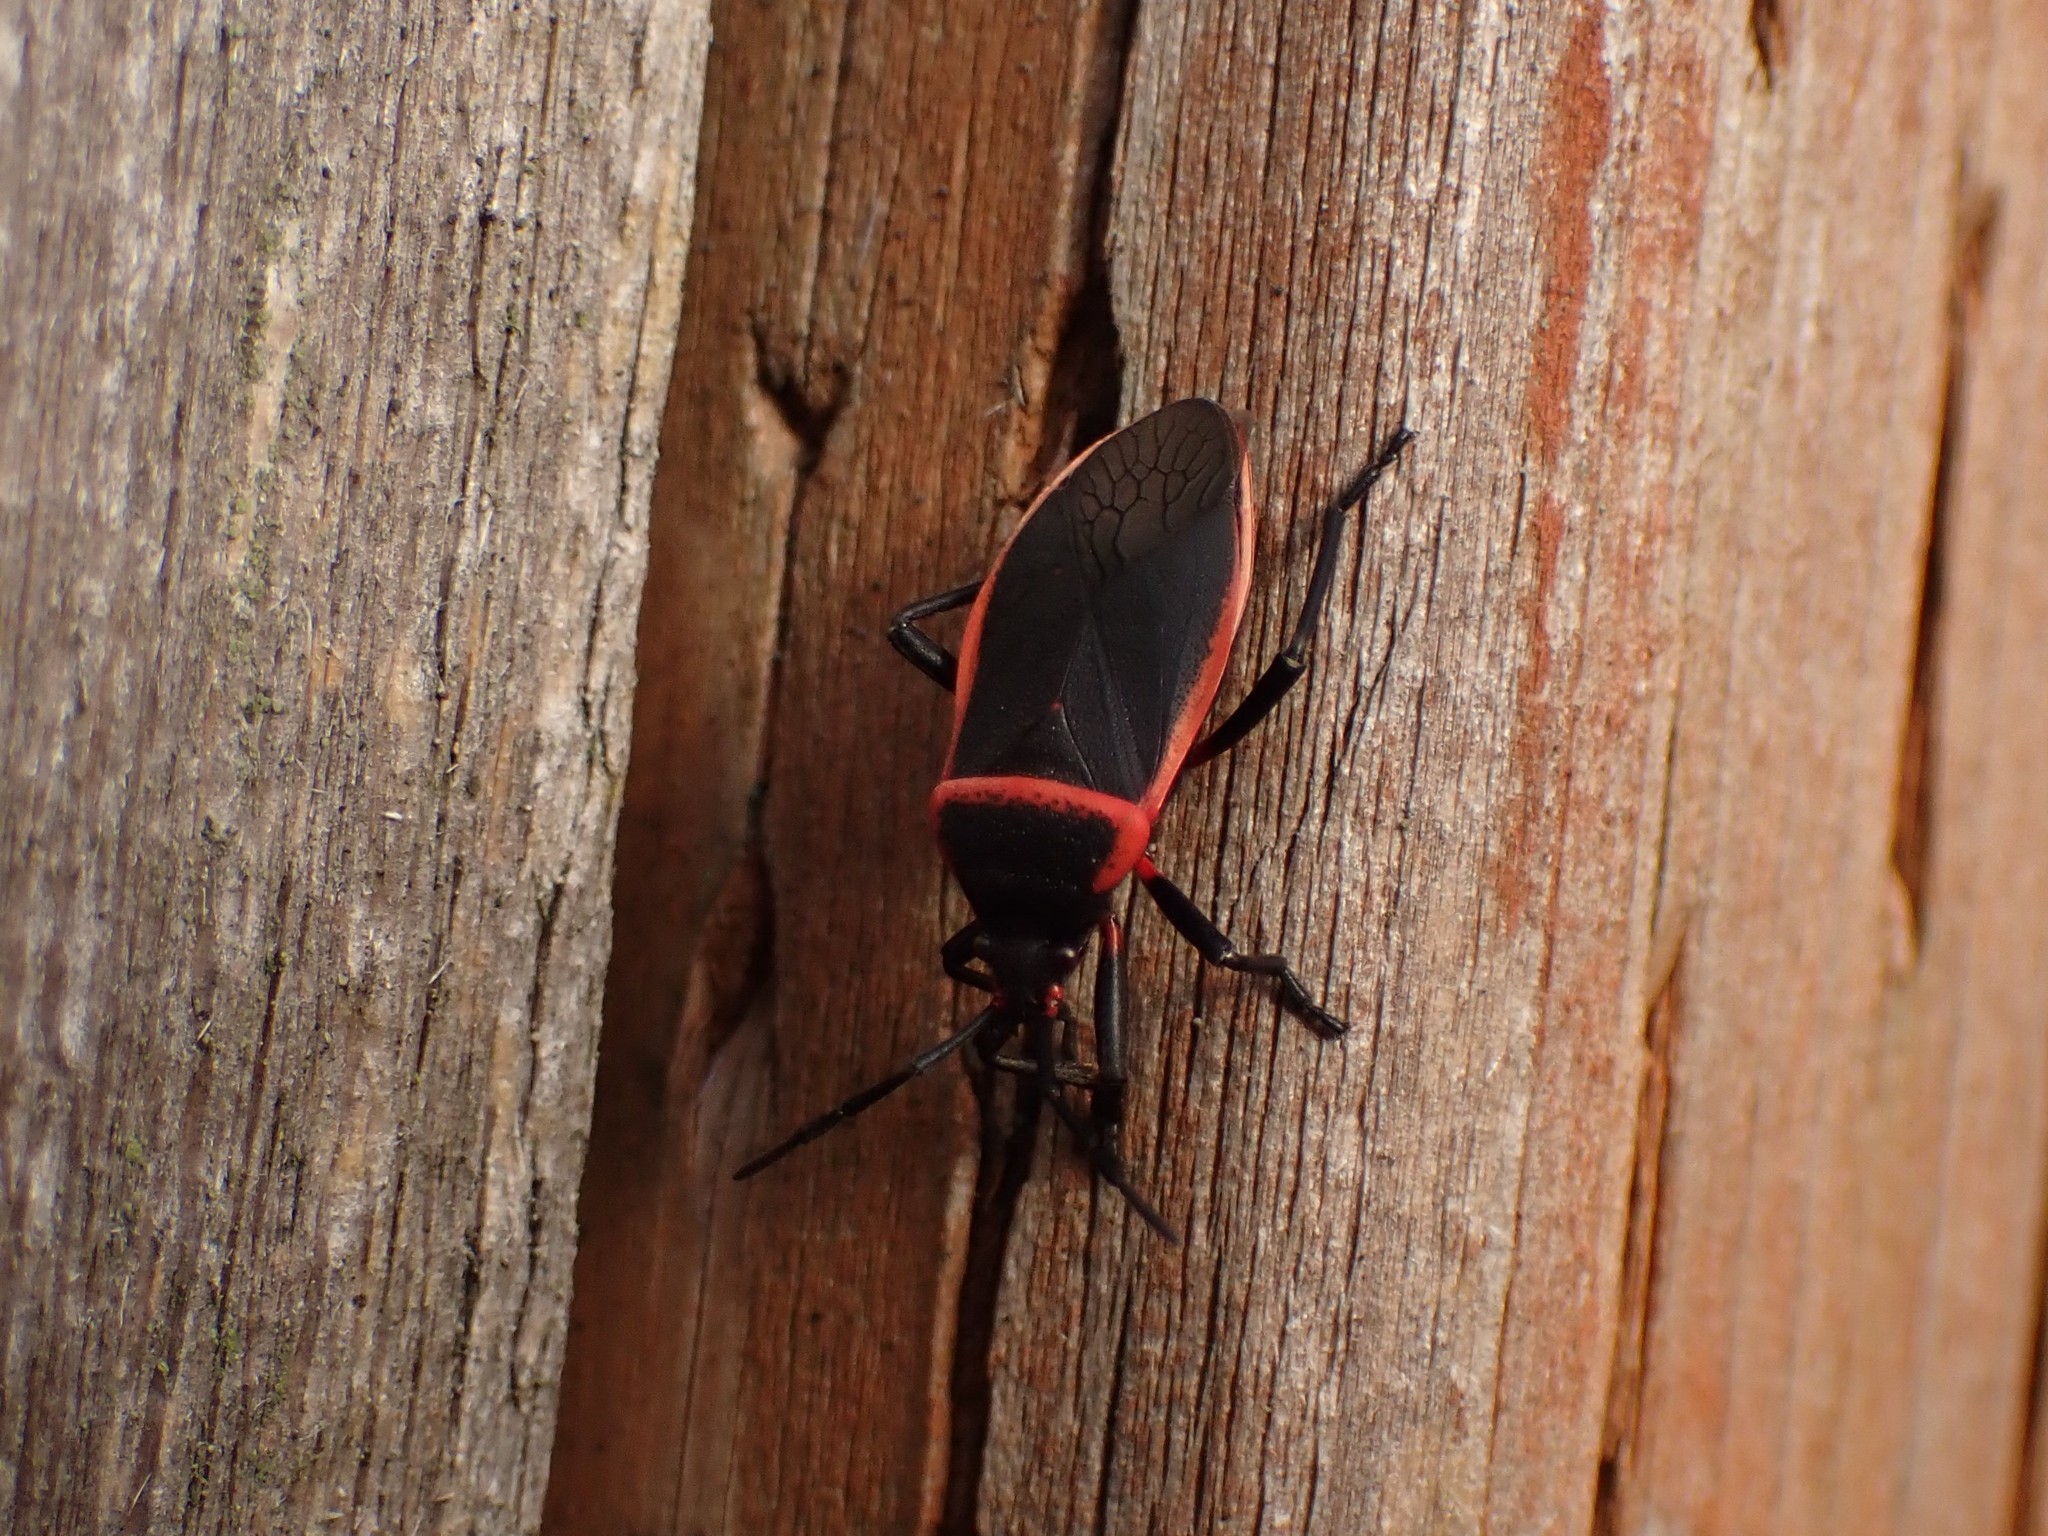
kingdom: Animalia
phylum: Arthropoda
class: Insecta
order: Hemiptera
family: Largidae
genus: Largus
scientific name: Largus
